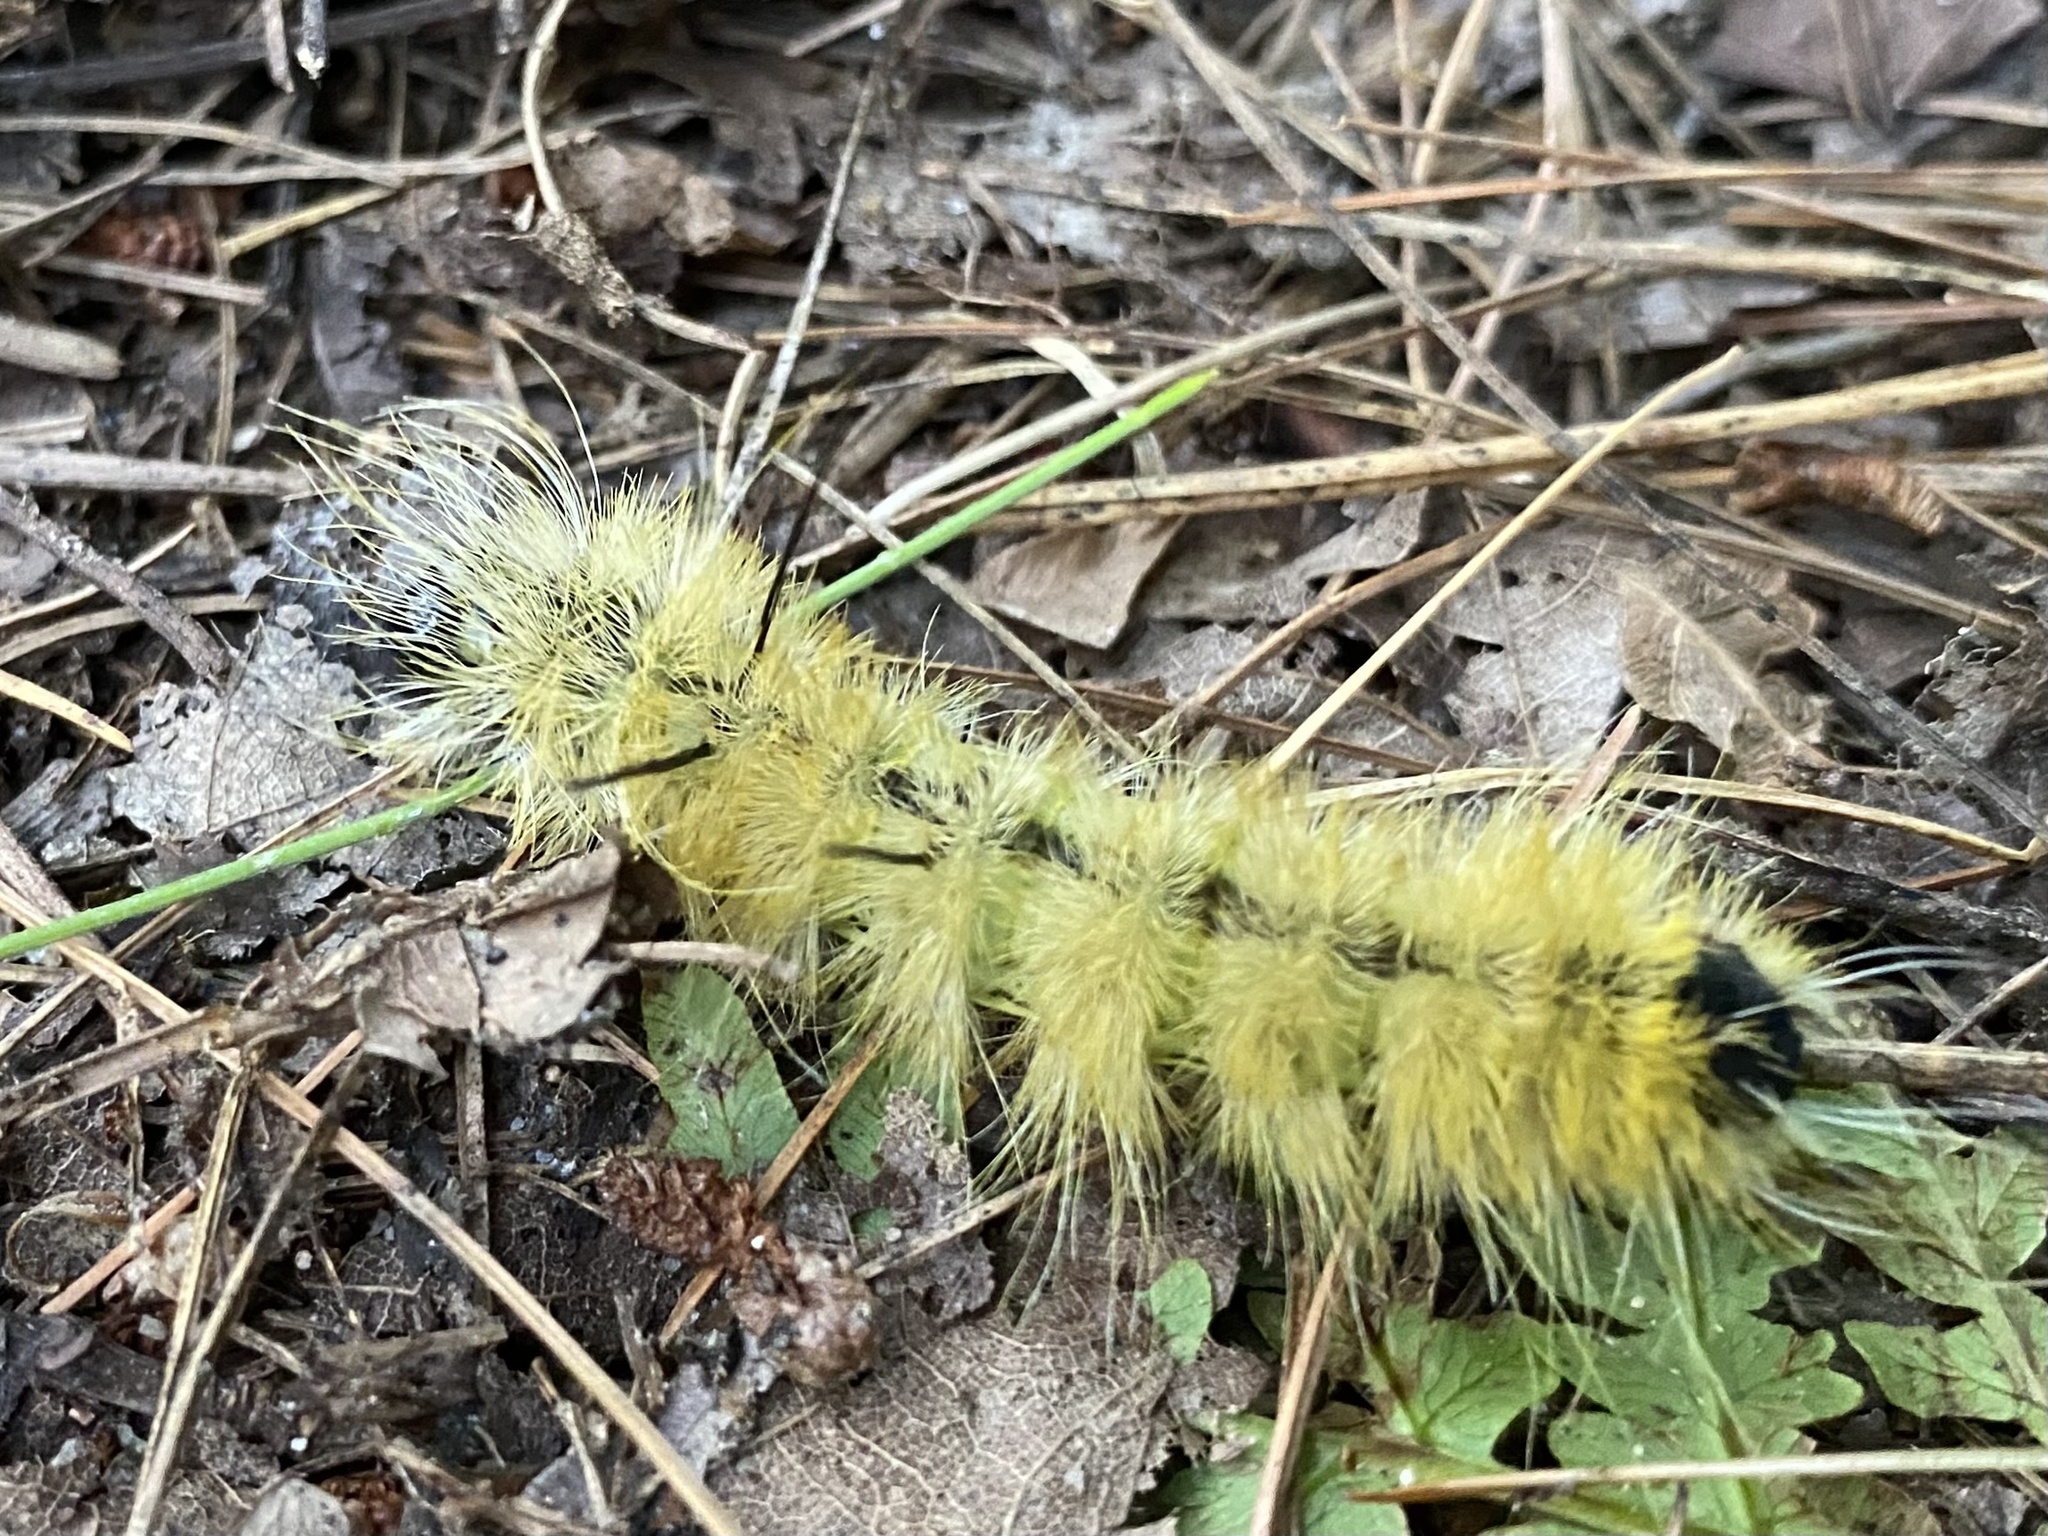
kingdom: Animalia
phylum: Arthropoda
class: Insecta
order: Lepidoptera
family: Noctuidae
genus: Acronicta
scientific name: Acronicta americana
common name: American dagger
